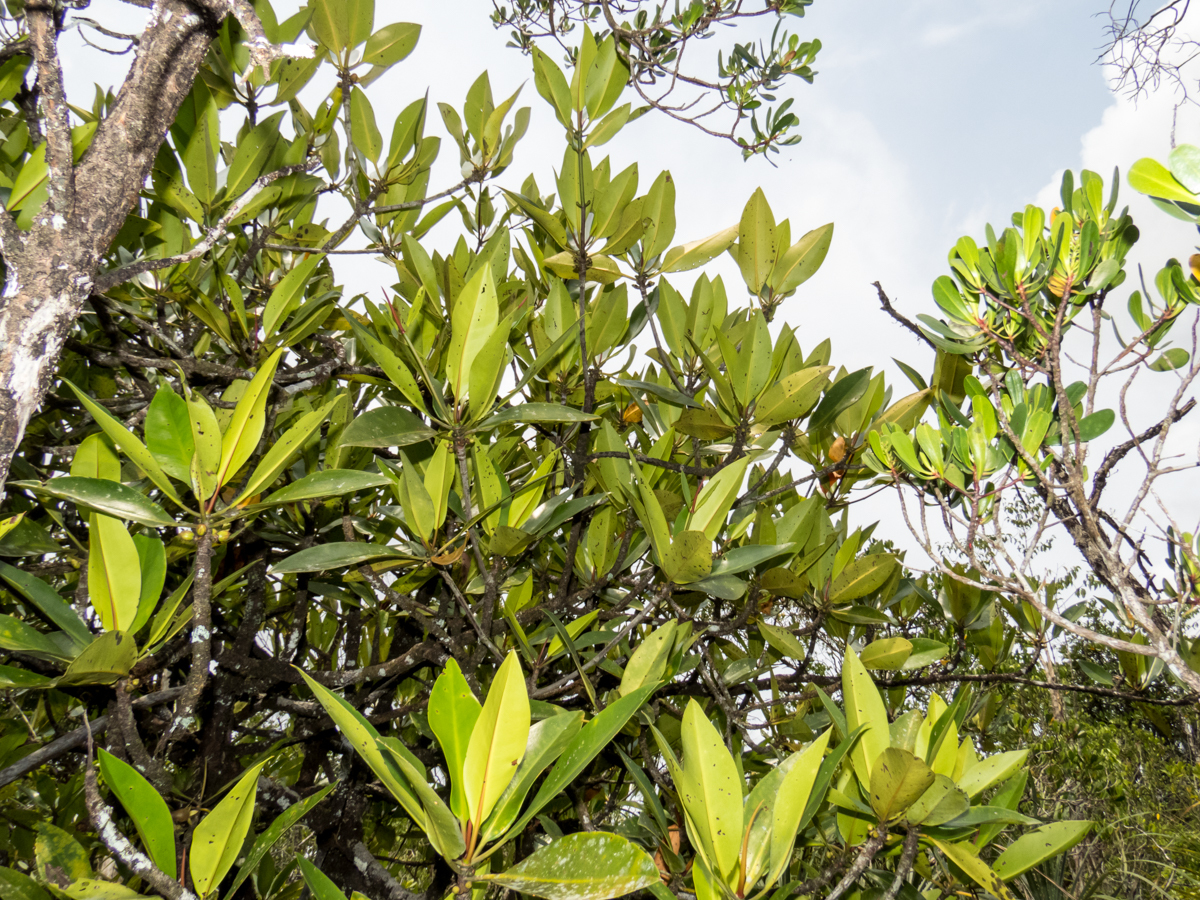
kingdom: Plantae
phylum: Tracheophyta
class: Magnoliopsida
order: Malpighiales
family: Rhizophoraceae
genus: Rhizophora
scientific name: Rhizophora apiculata
